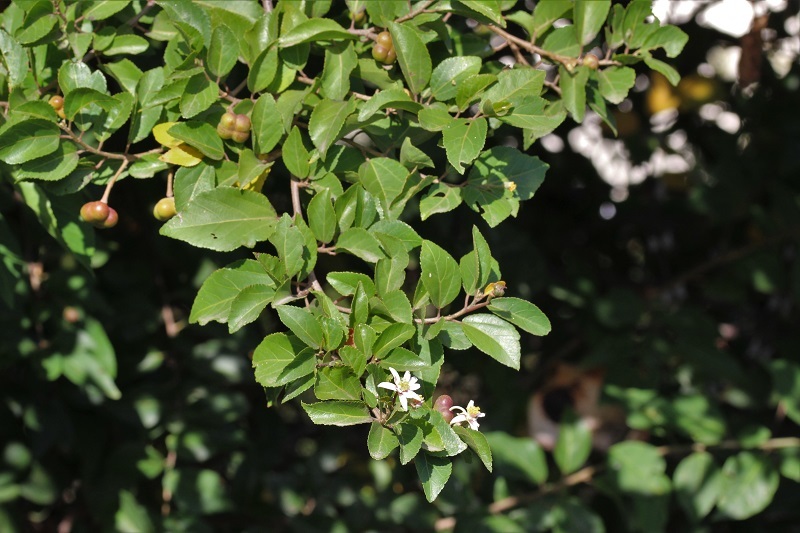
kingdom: Plantae
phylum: Tracheophyta
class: Magnoliopsida
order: Malvales
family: Malvaceae
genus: Grewia
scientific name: Grewia occidentalis
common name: Crossberry
